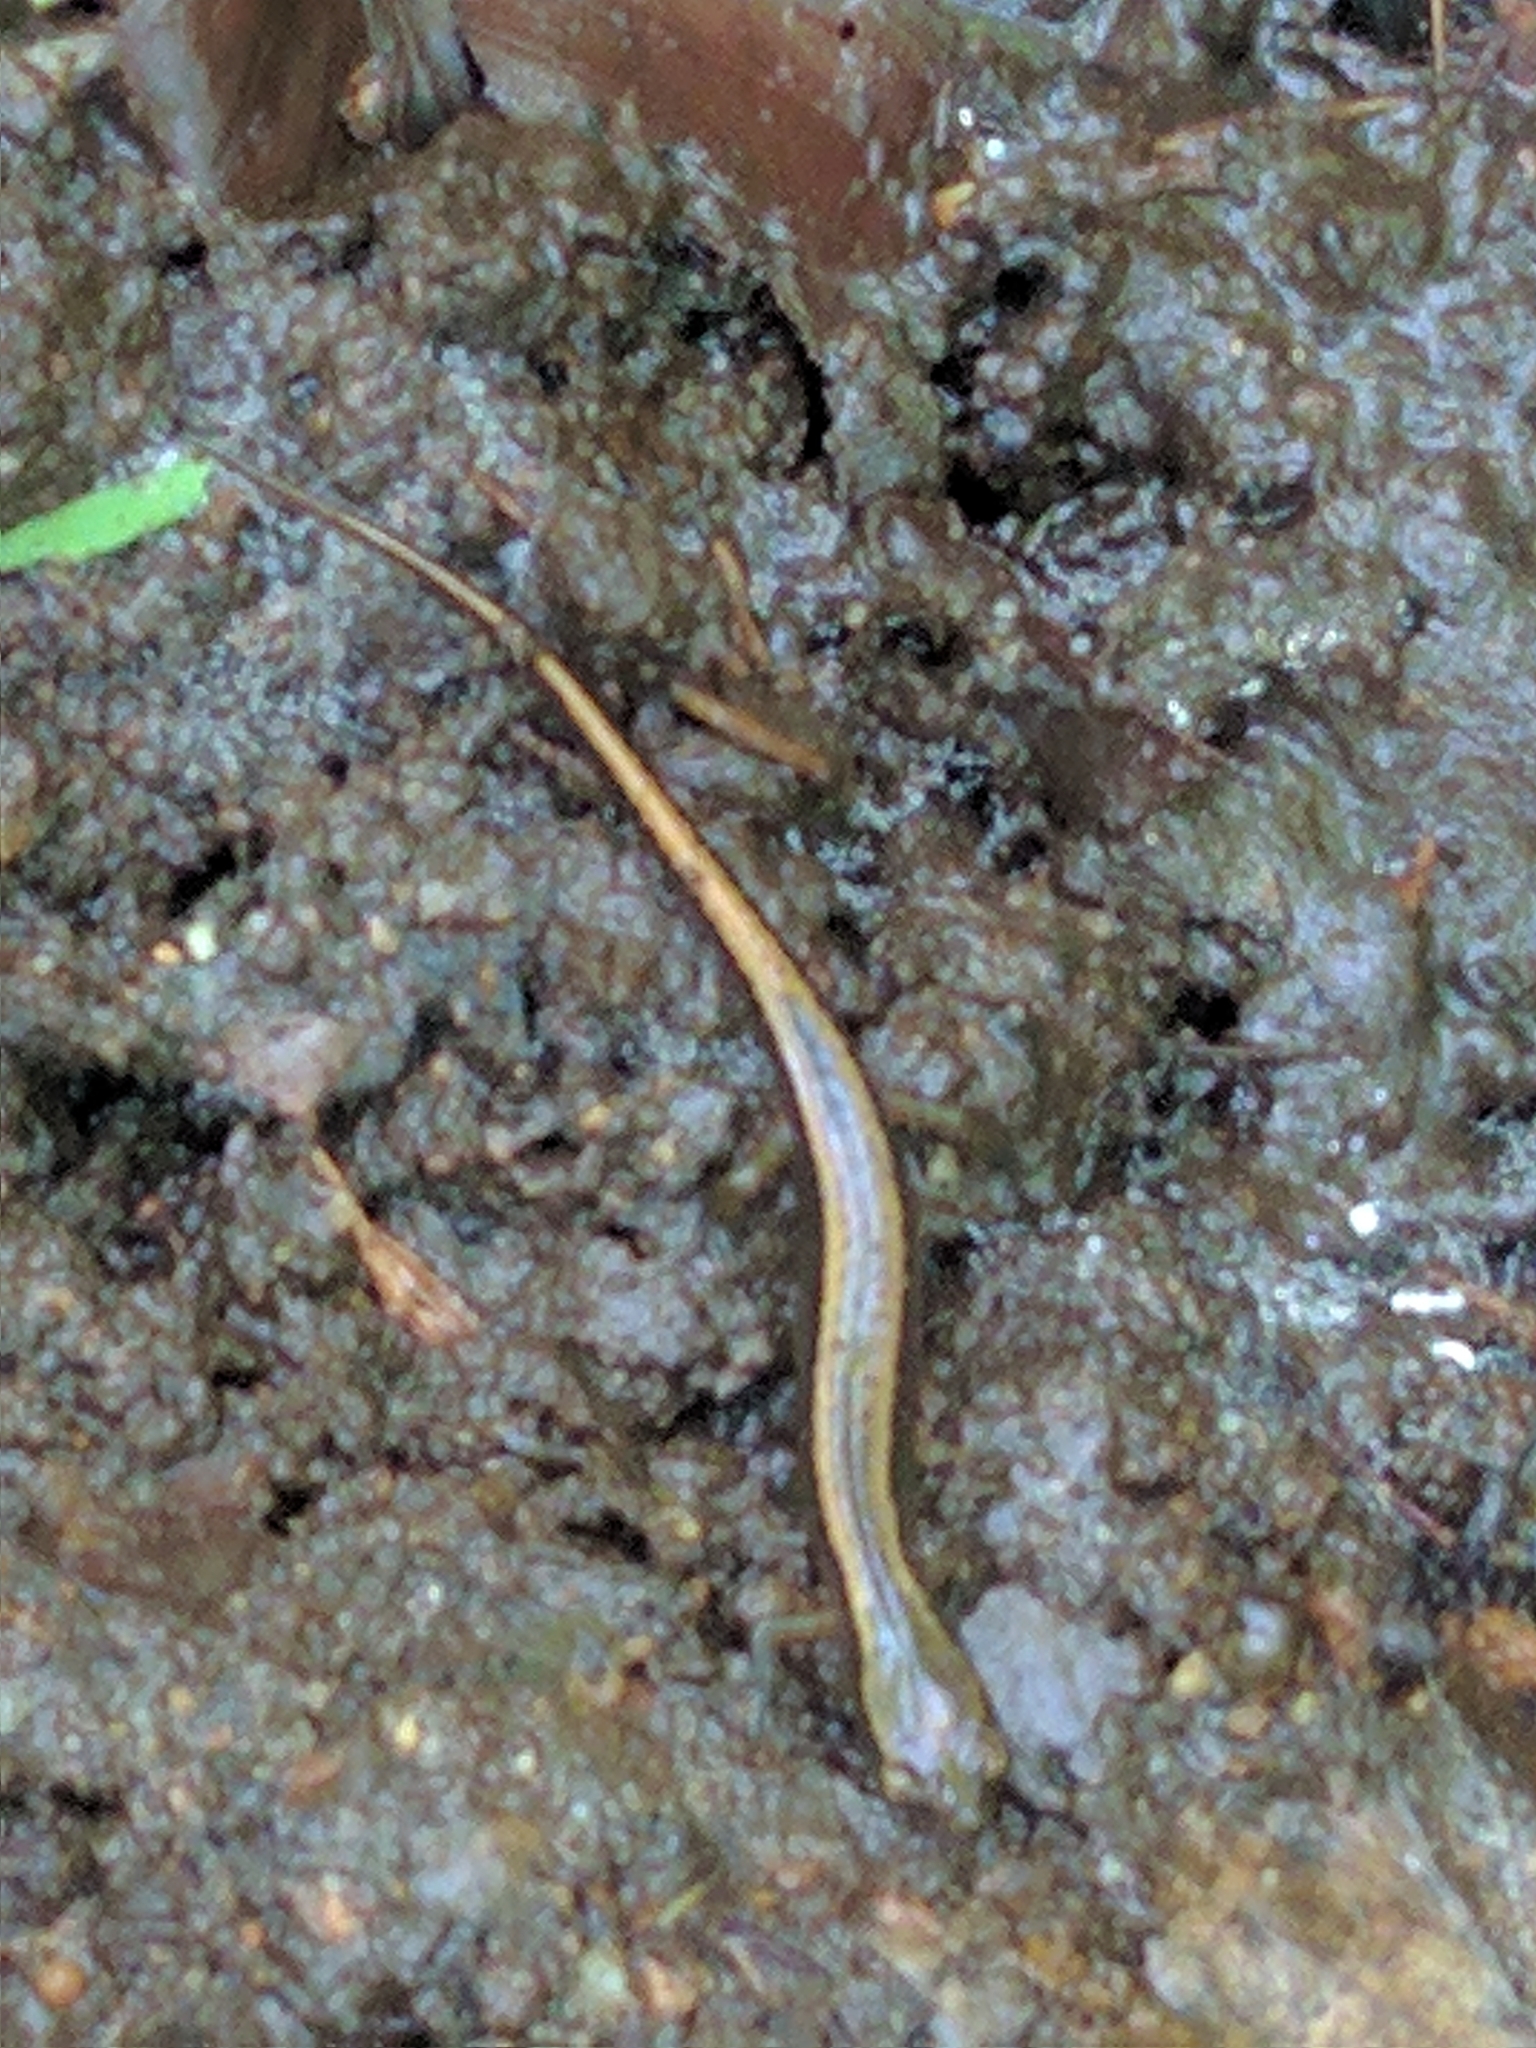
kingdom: Animalia
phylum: Chordata
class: Amphibia
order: Caudata
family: Plethodontidae
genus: Eurycea
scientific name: Eurycea bislineata
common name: Northern two-lined salamander
